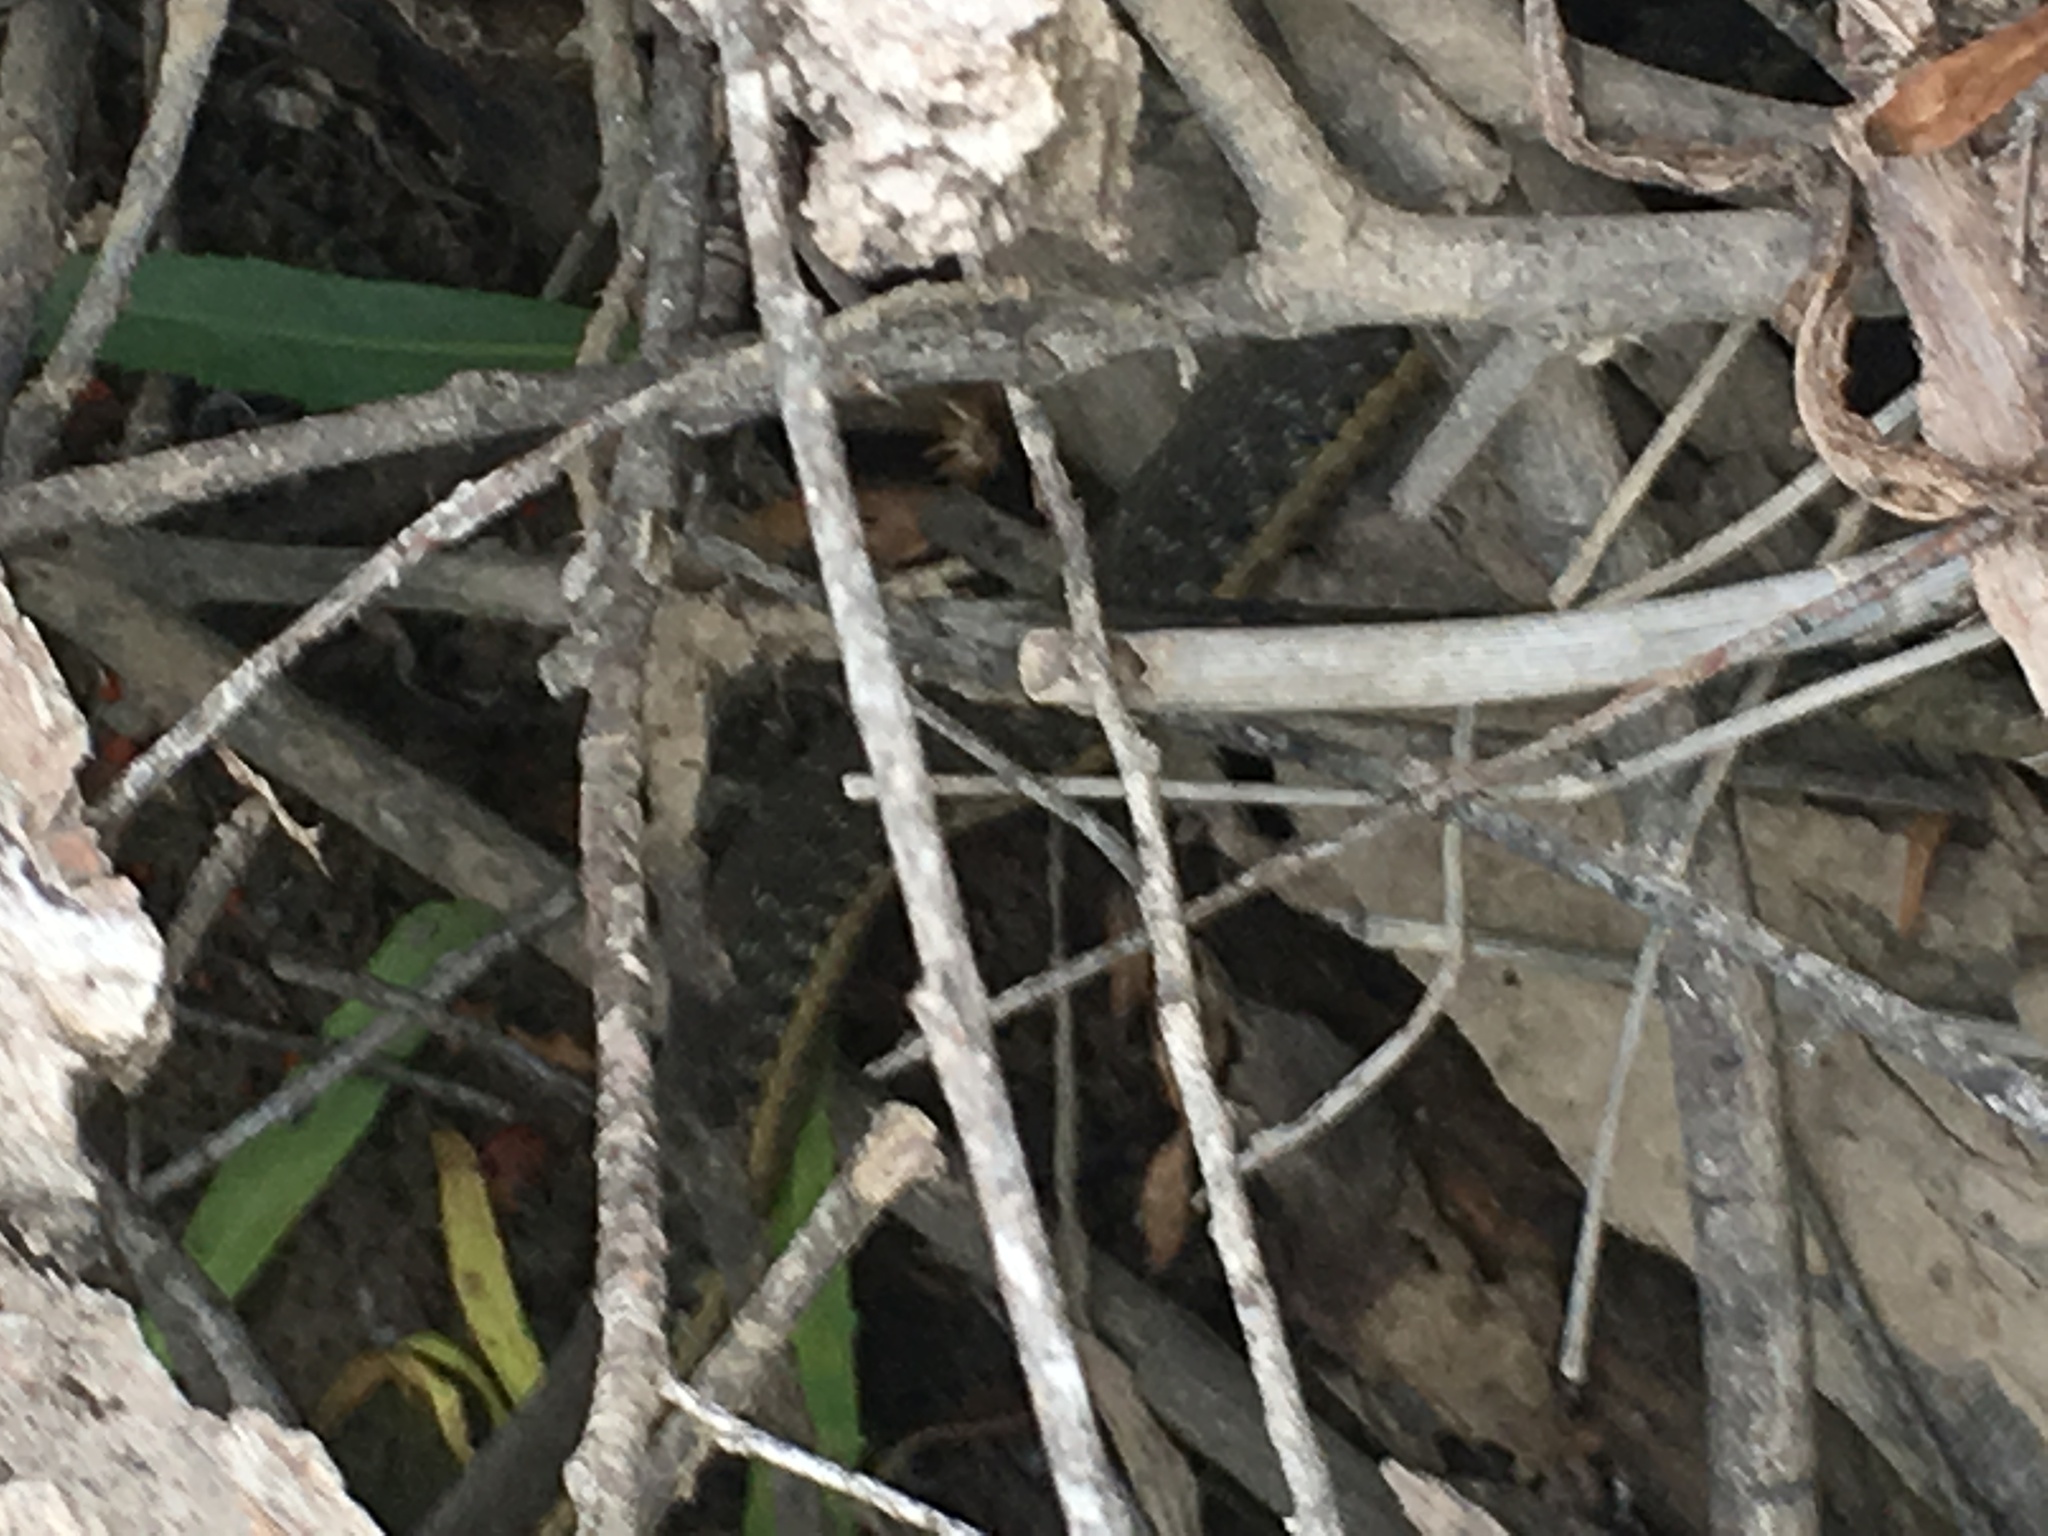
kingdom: Animalia
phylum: Chordata
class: Squamata
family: Colubridae
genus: Thamnophis
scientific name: Thamnophis hammondii
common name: Two-striped garter snake
